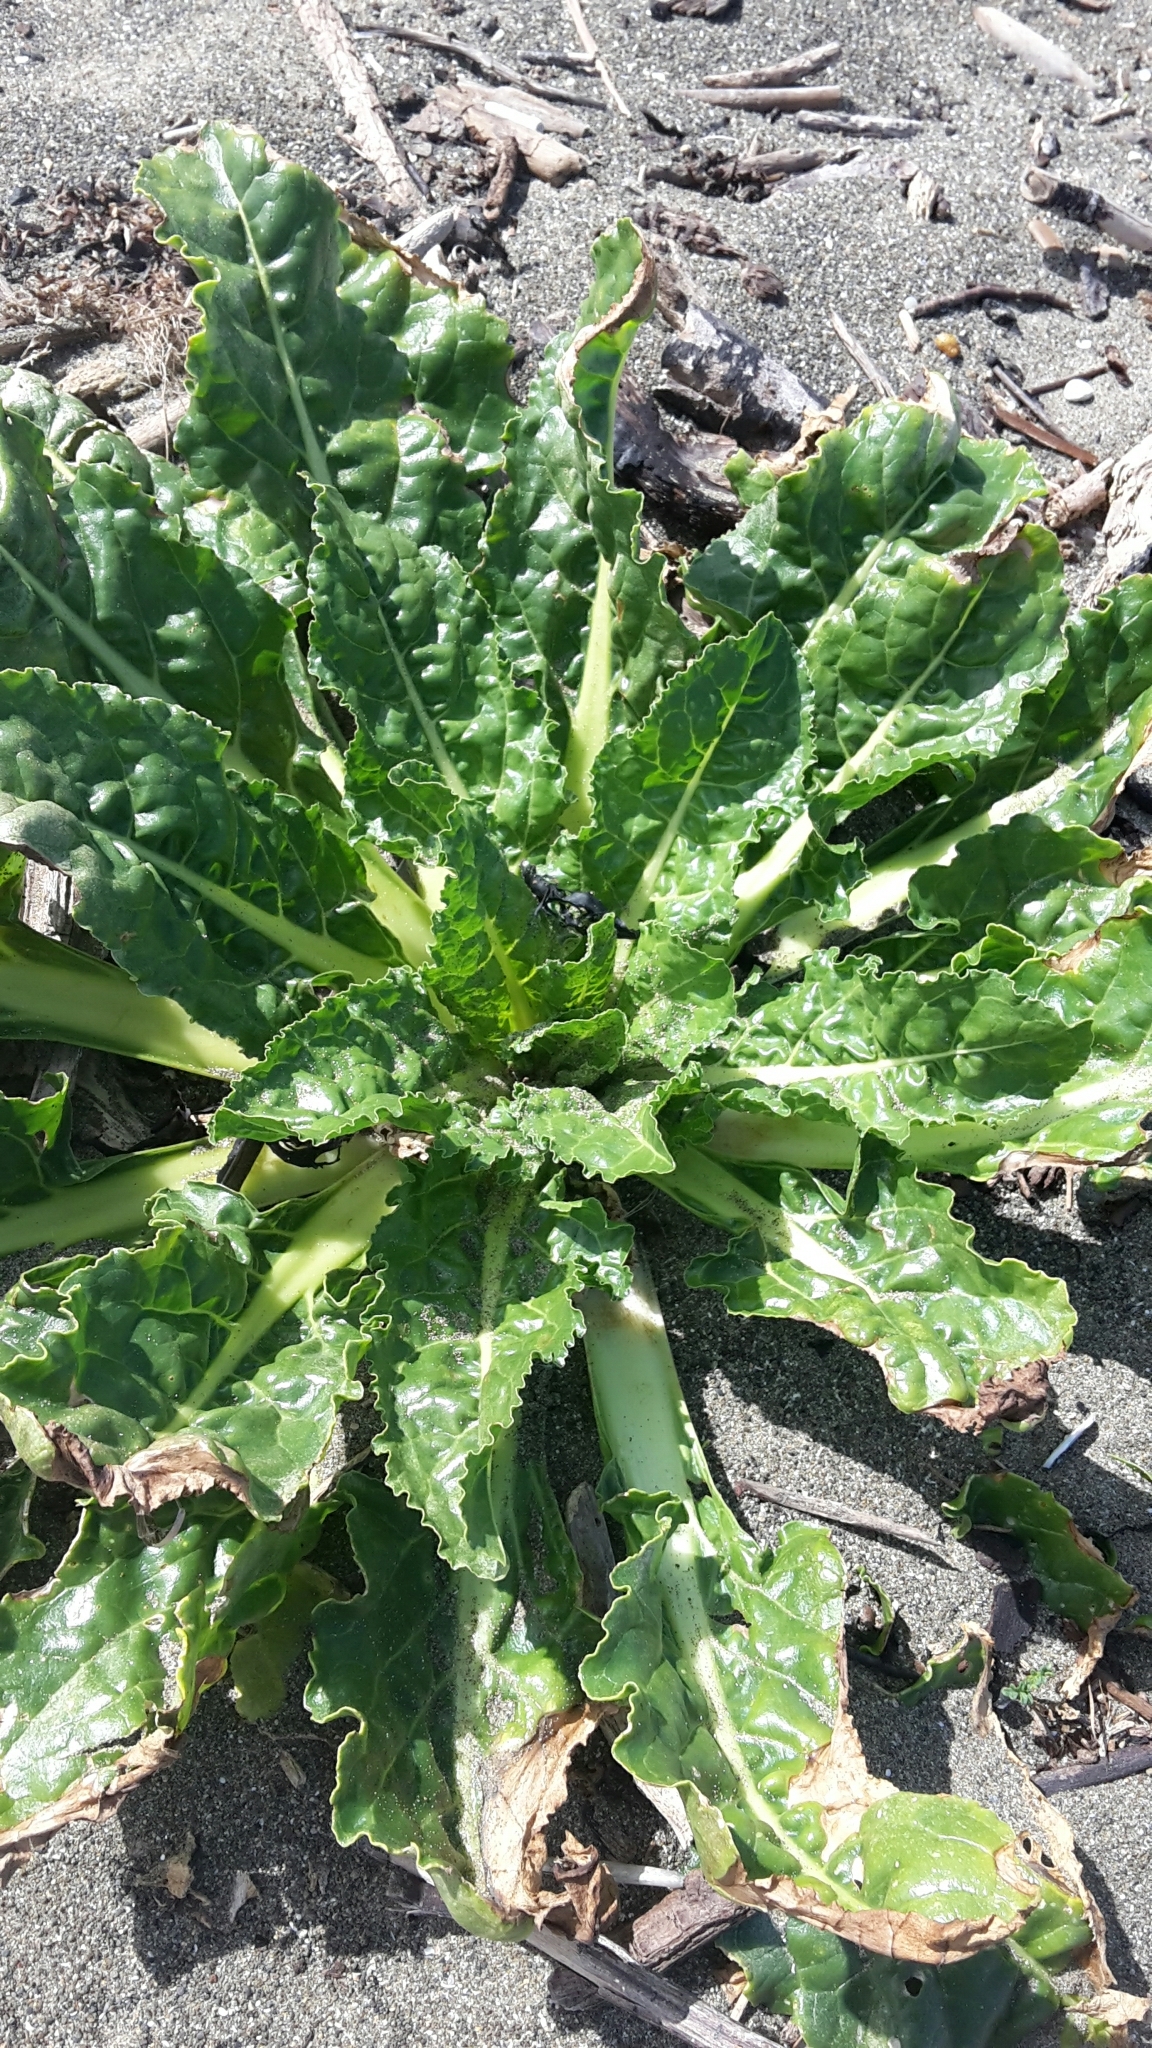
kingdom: Plantae
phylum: Tracheophyta
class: Magnoliopsida
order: Caryophyllales
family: Amaranthaceae
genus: Beta
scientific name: Beta vulgaris
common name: Beet
